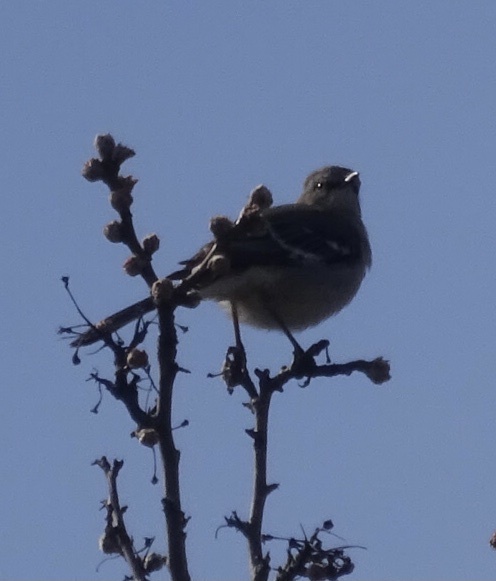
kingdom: Animalia
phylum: Chordata
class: Aves
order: Passeriformes
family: Mimidae
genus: Mimus
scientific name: Mimus polyglottos
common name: Northern mockingbird
